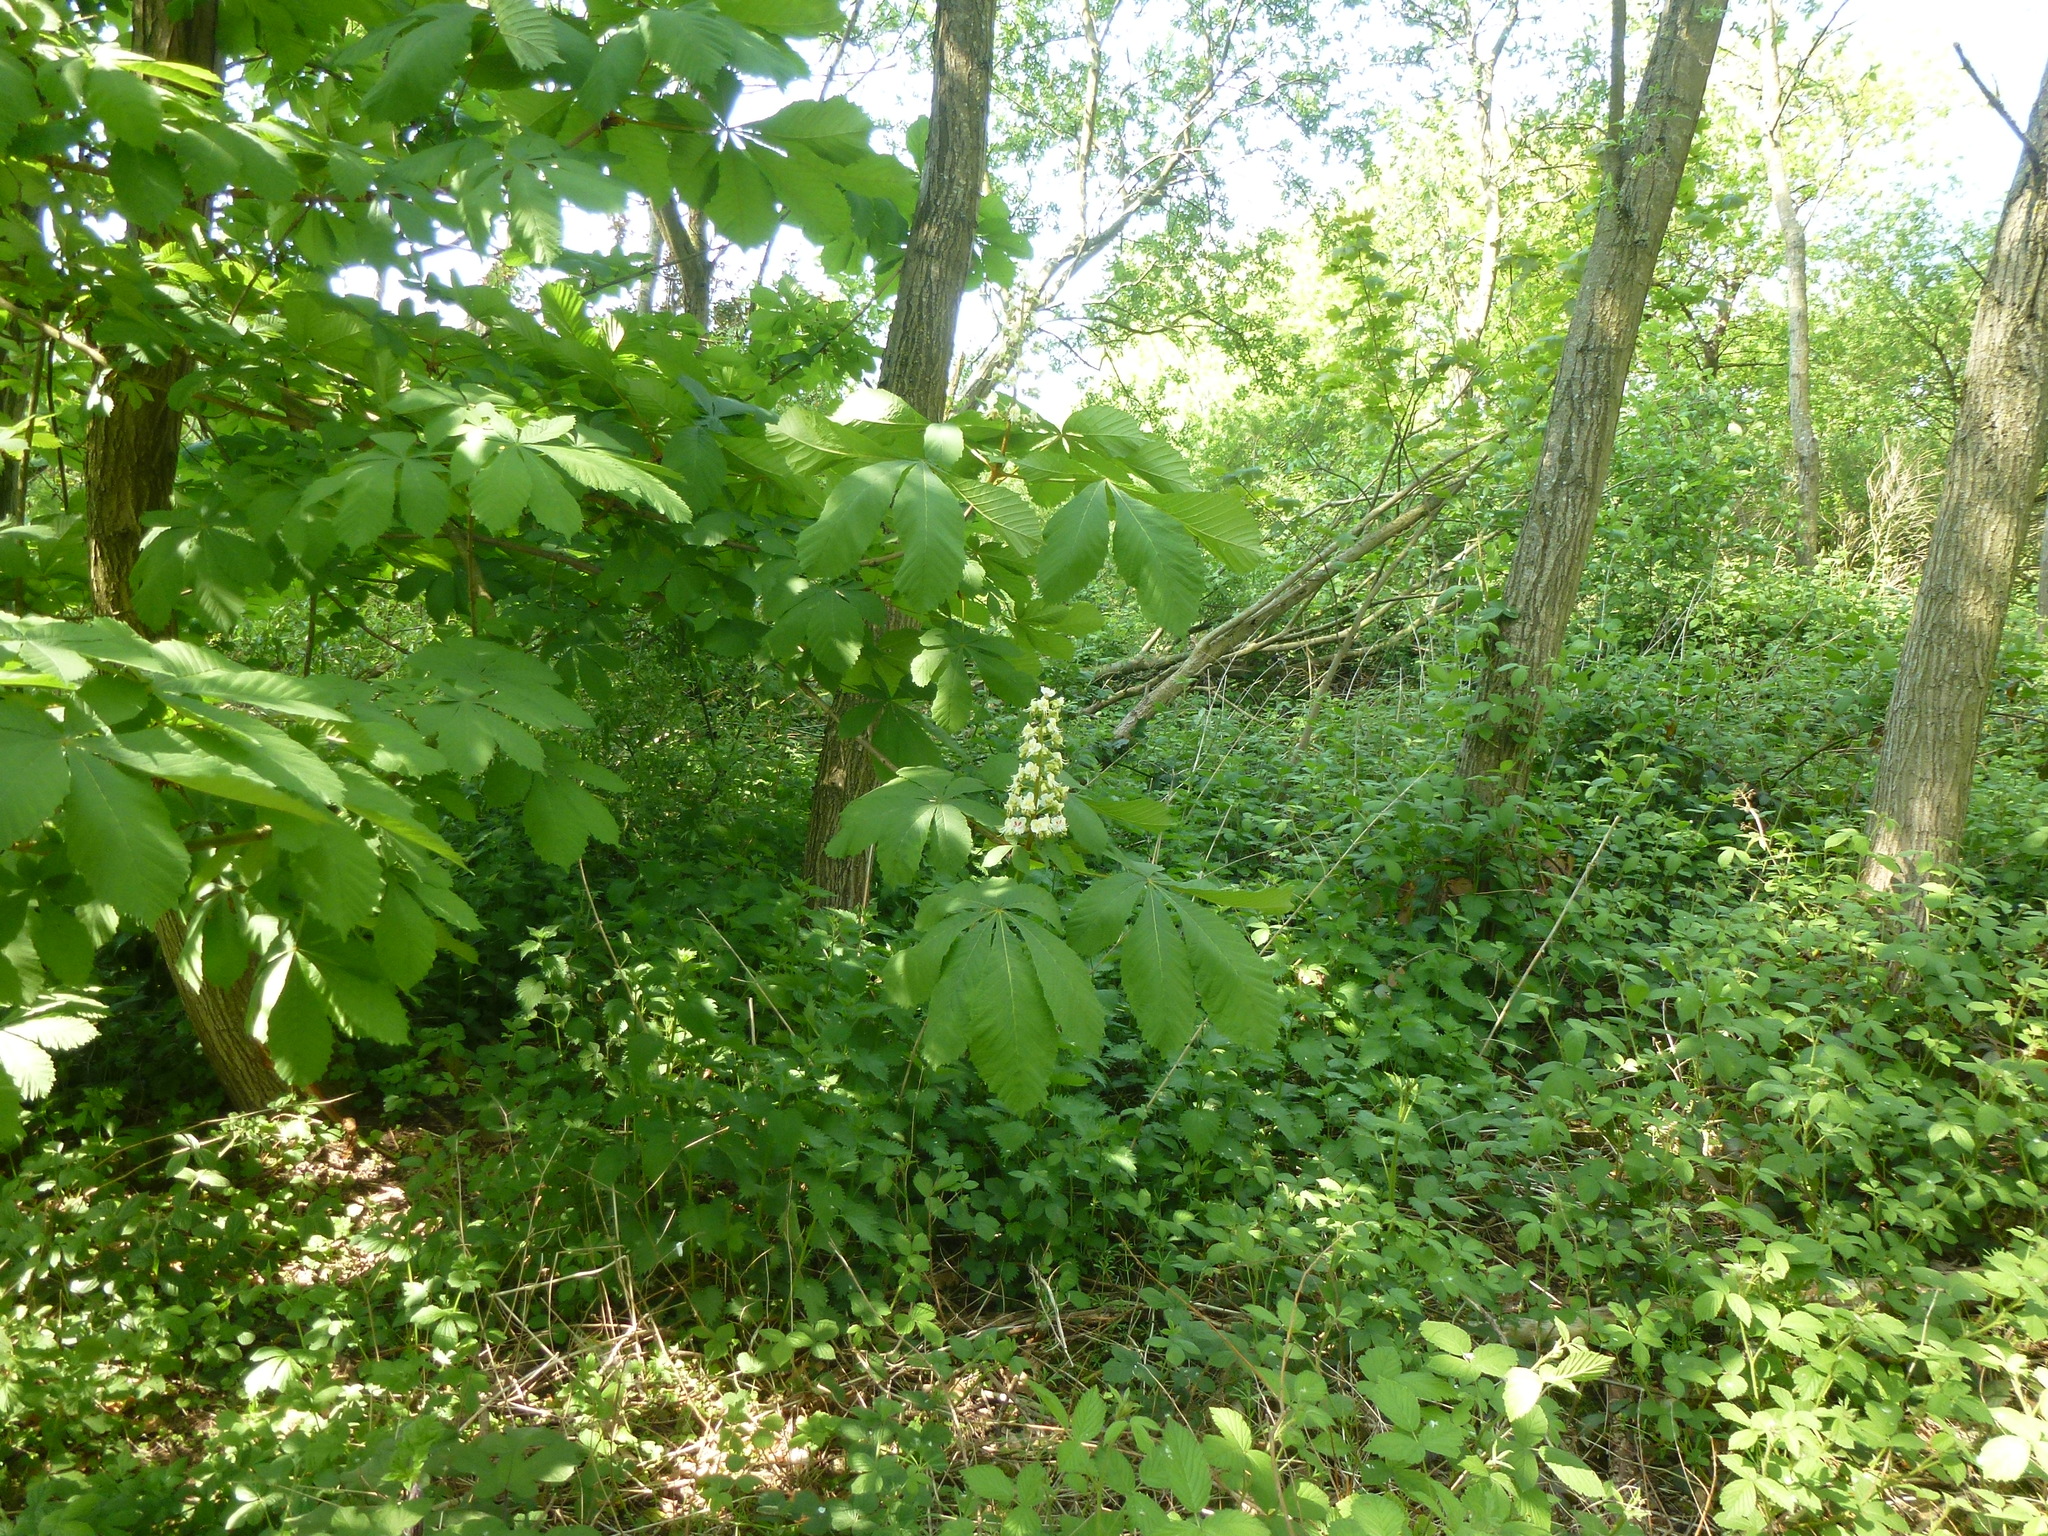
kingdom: Plantae
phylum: Tracheophyta
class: Magnoliopsida
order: Sapindales
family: Sapindaceae
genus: Aesculus
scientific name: Aesculus hippocastanum
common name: Horse-chestnut
